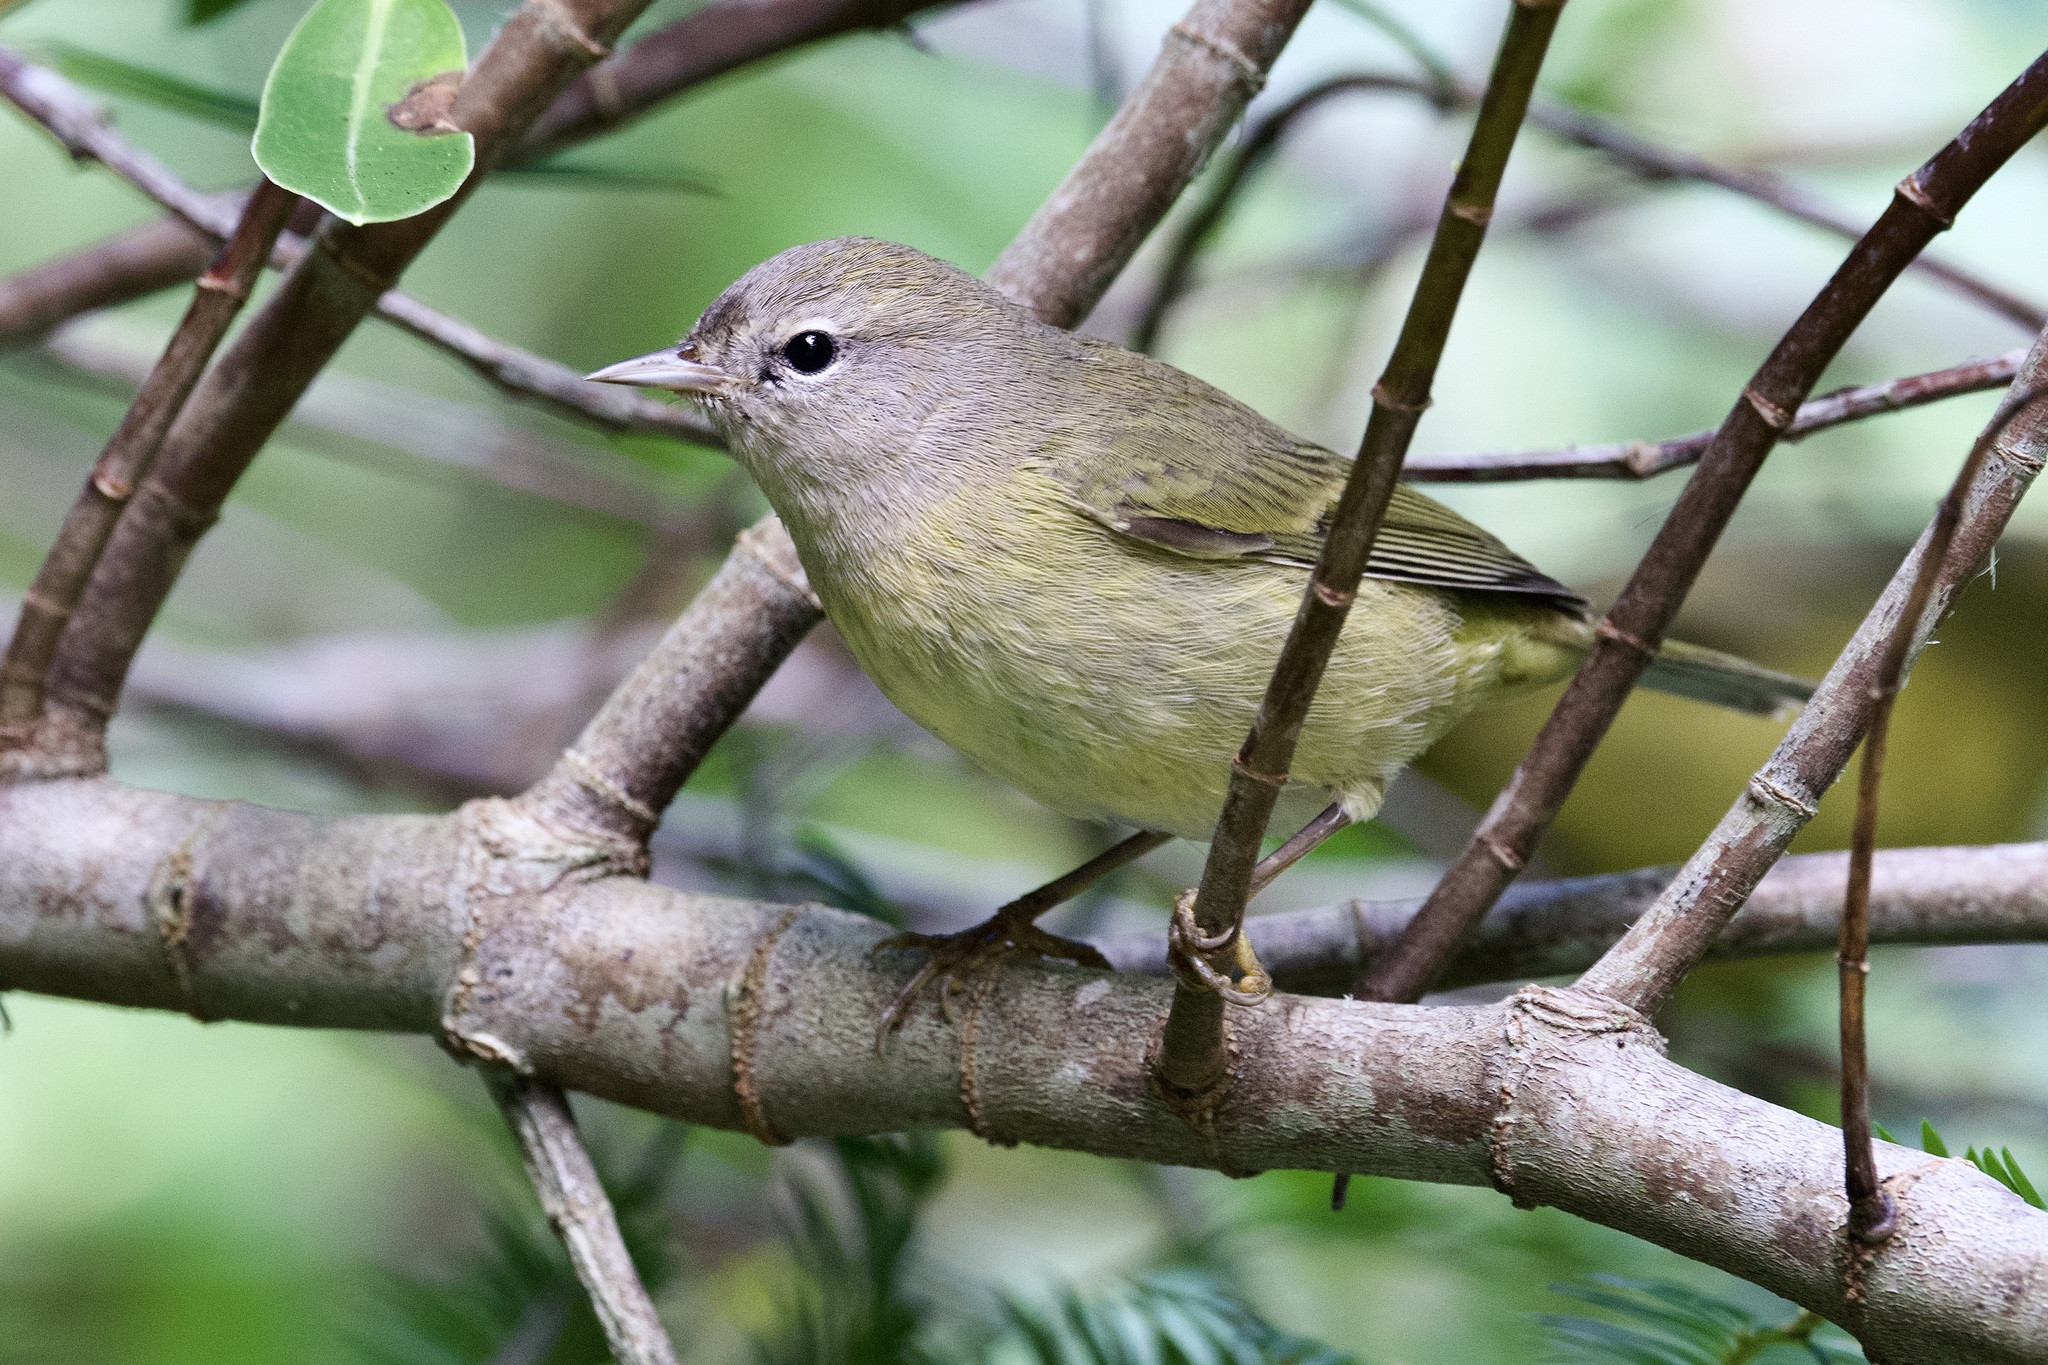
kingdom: Animalia
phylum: Chordata
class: Aves
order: Passeriformes
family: Parulidae
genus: Leiothlypis
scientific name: Leiothlypis celata
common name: Orange-crowned warbler
